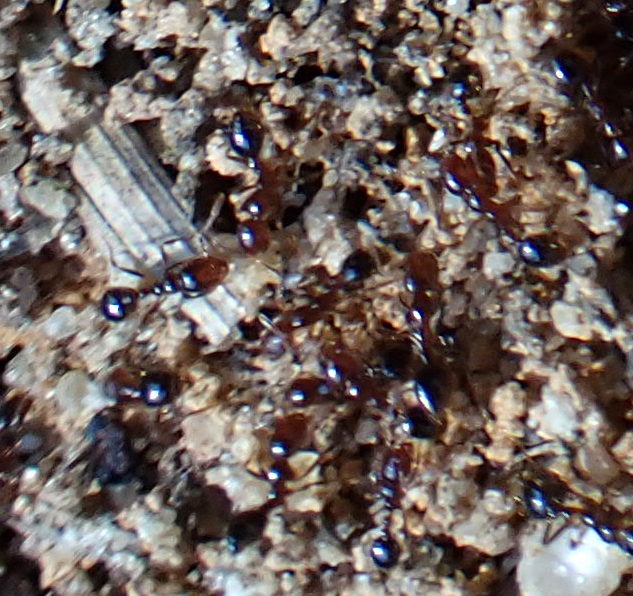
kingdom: Animalia
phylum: Arthropoda
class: Insecta
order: Hymenoptera
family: Formicidae
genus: Solenopsis
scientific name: Solenopsis invicta
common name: Red imported fire ant
